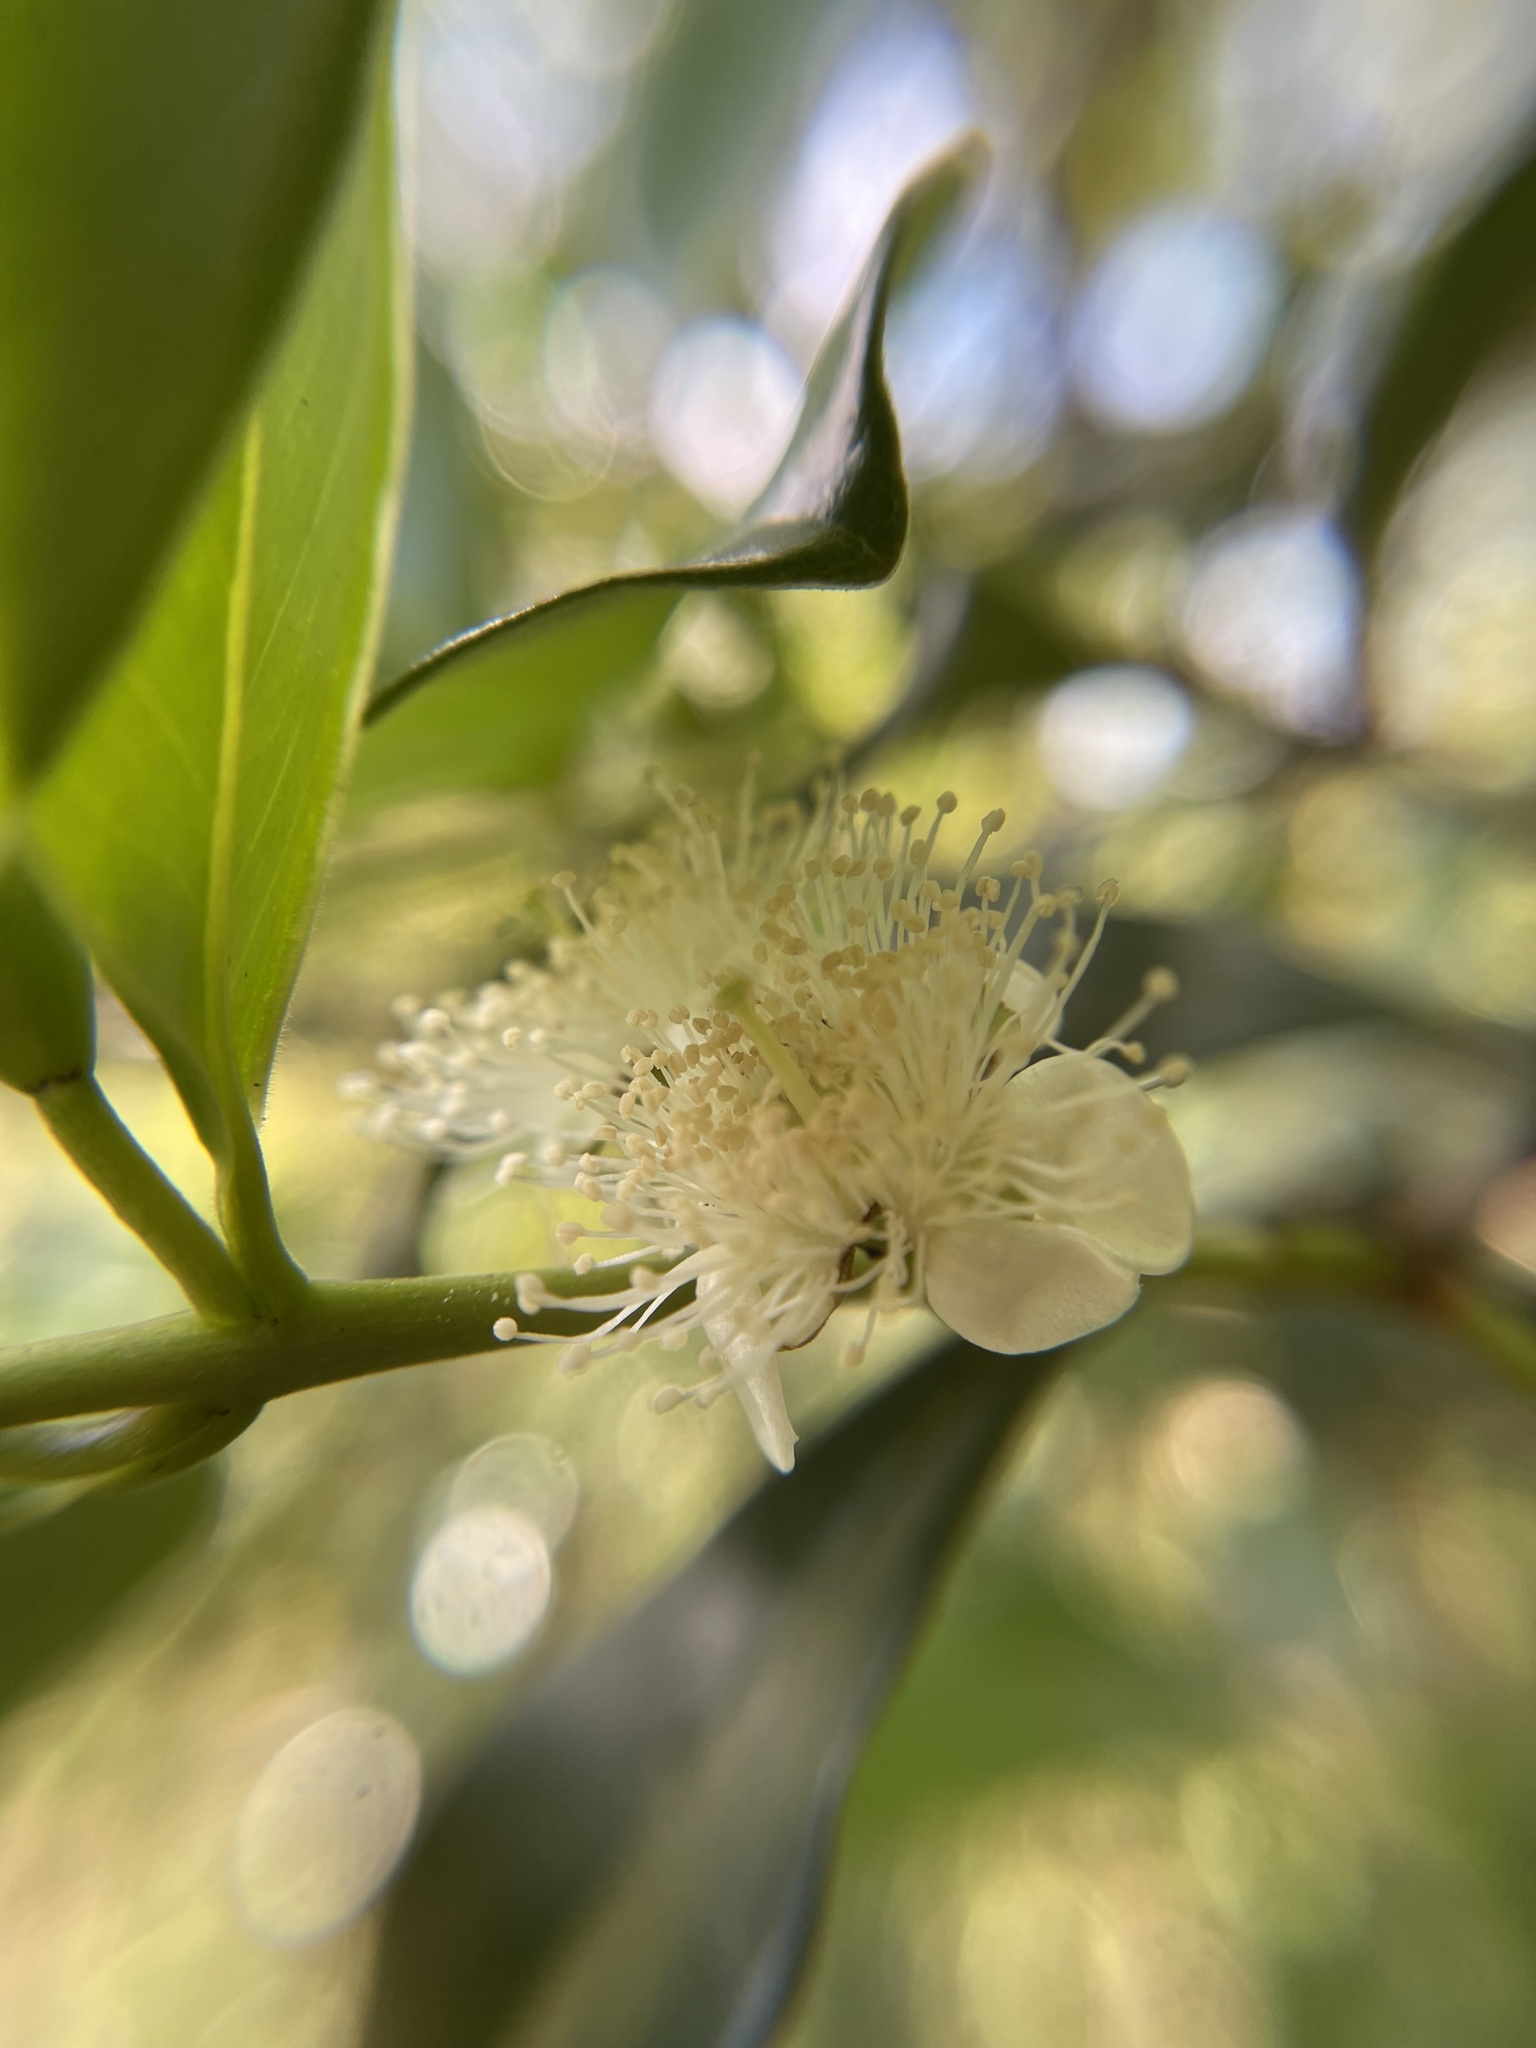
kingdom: Plantae
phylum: Tracheophyta
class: Magnoliopsida
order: Myrtales
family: Myrtaceae
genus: Psidium
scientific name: Psidium cattleianum
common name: Strawberry guava
